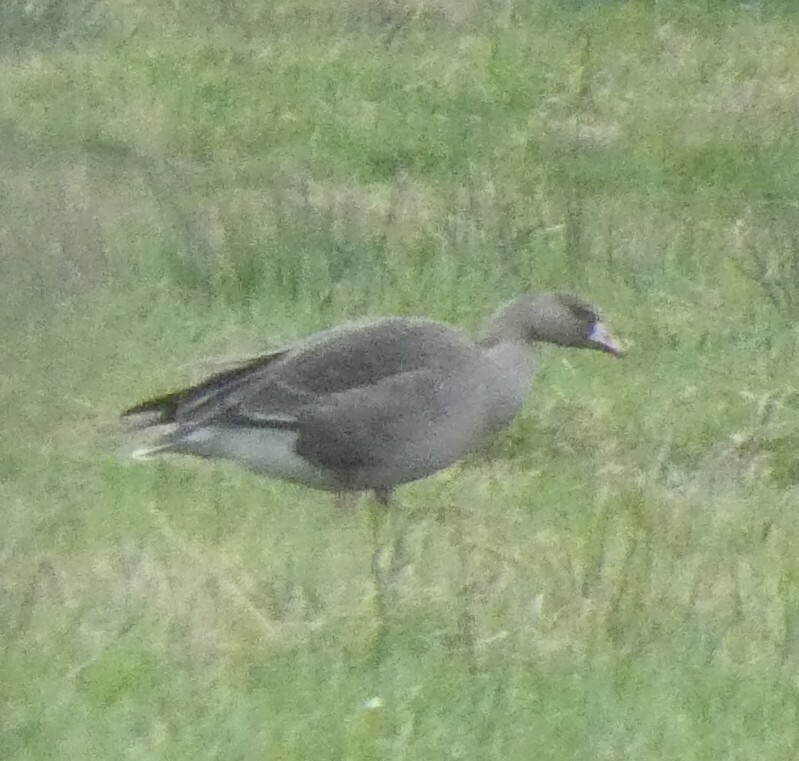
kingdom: Animalia
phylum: Chordata
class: Aves
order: Anseriformes
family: Anatidae
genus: Anser
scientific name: Anser albifrons
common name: Greater white-fronted goose
